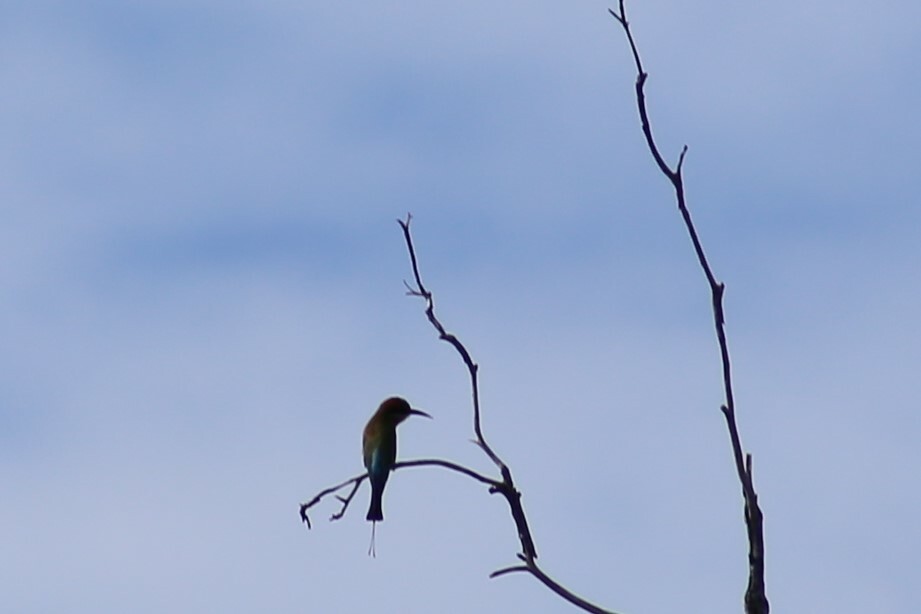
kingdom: Animalia
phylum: Chordata
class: Aves
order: Coraciiformes
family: Meropidae
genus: Merops
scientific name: Merops ornatus
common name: Rainbow bee-eater
